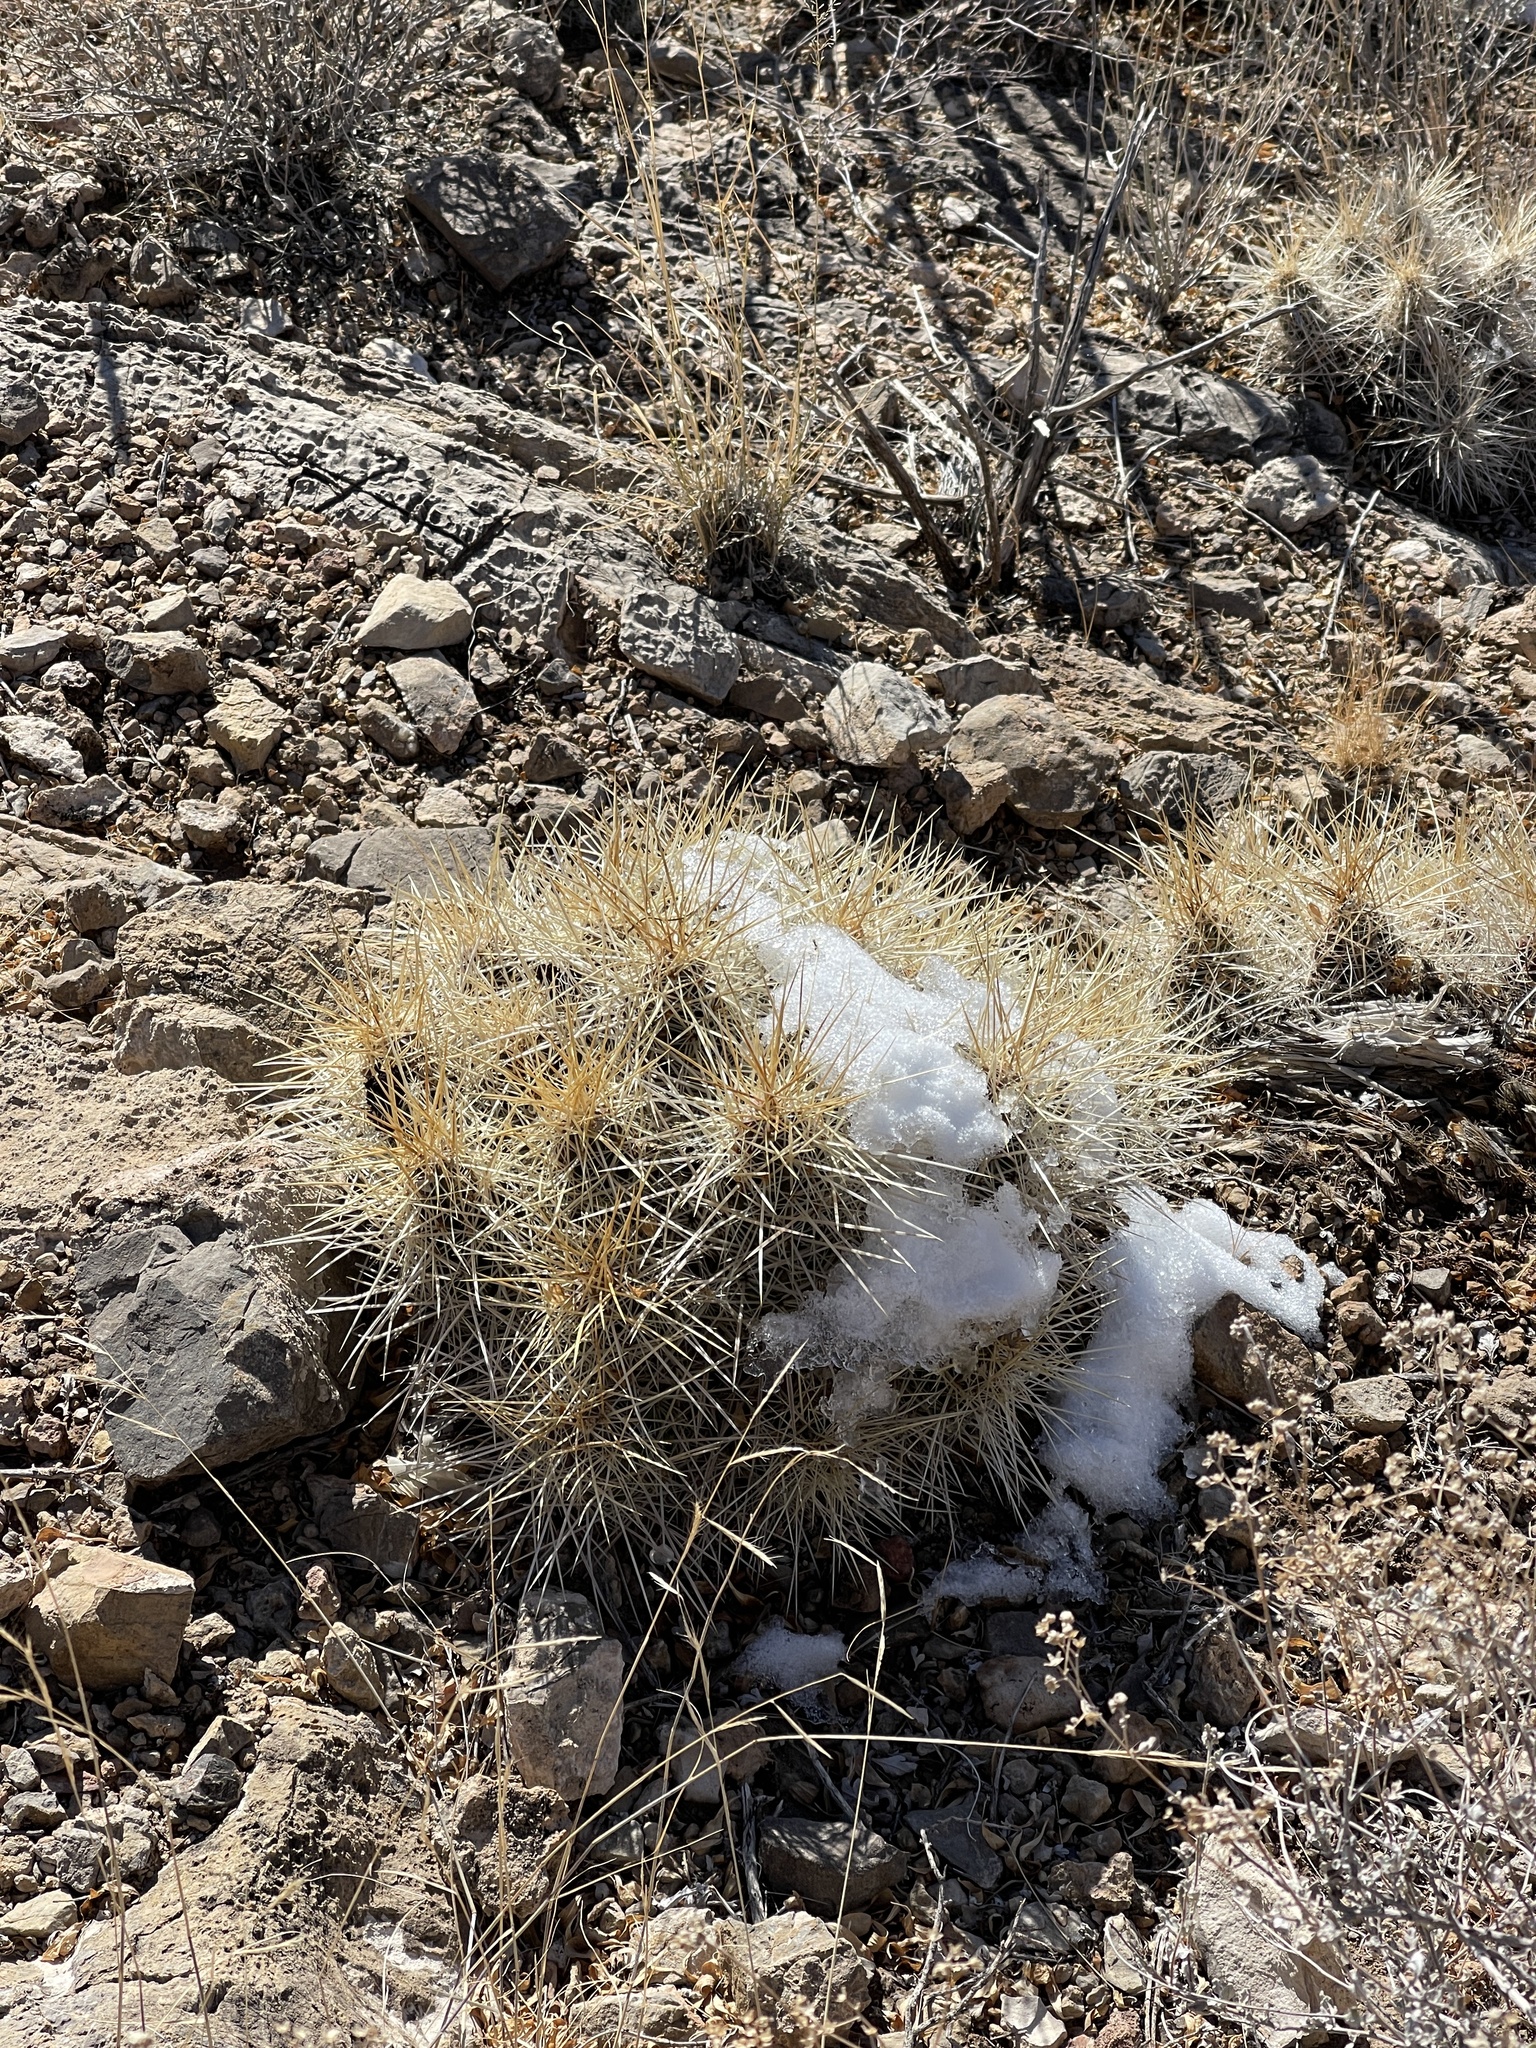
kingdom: Plantae
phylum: Tracheophyta
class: Magnoliopsida
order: Caryophyllales
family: Cactaceae
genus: Echinocereus
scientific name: Echinocereus stramineus
